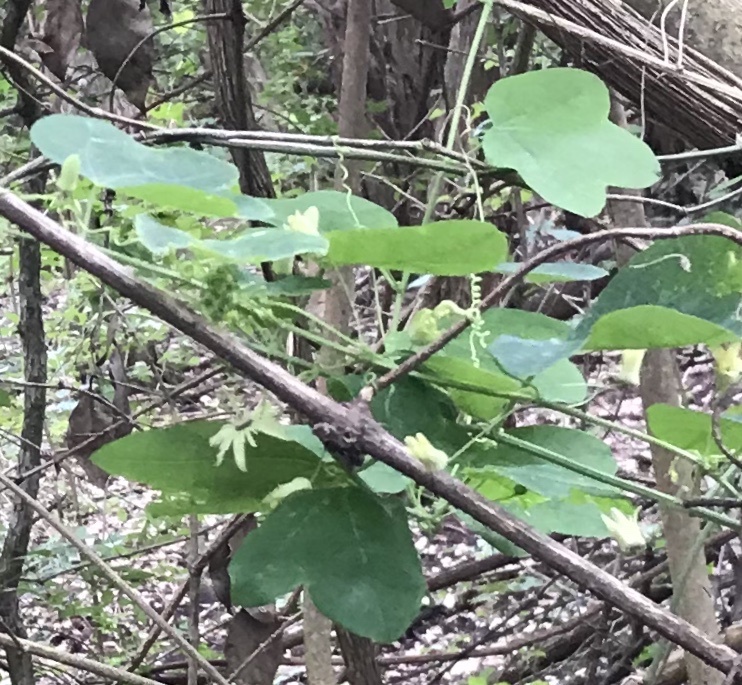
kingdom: Plantae
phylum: Tracheophyta
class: Magnoliopsida
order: Malpighiales
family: Passifloraceae
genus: Passiflora
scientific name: Passiflora lutea
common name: Yellow passionflower
